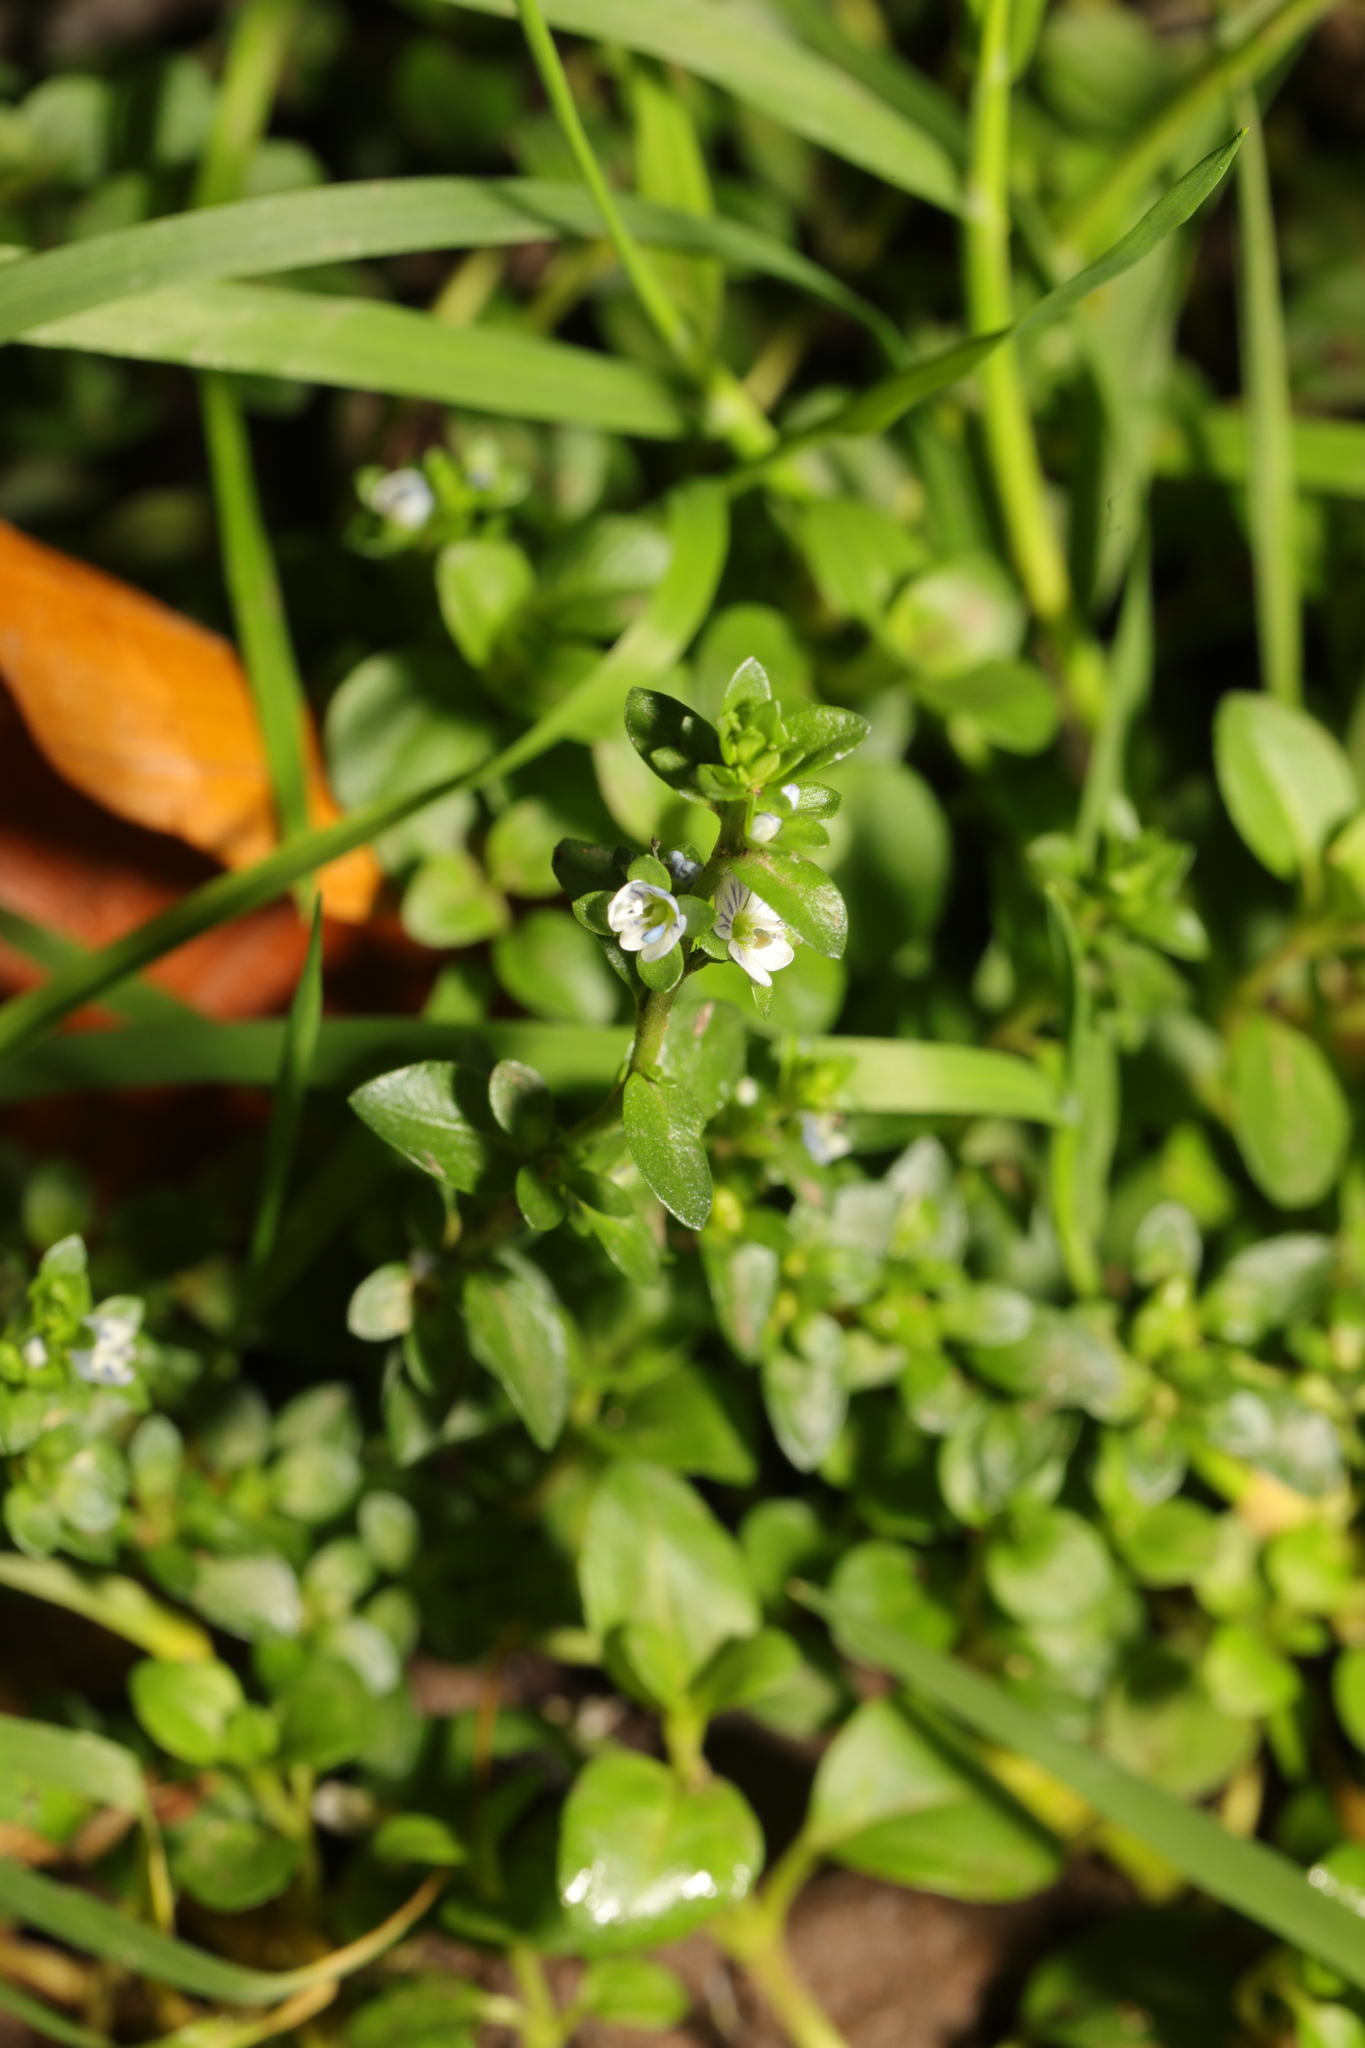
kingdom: Plantae
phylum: Tracheophyta
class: Magnoliopsida
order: Lamiales
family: Plantaginaceae
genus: Veronica
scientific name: Veronica serpyllifolia
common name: Thyme-leaved speedwell
